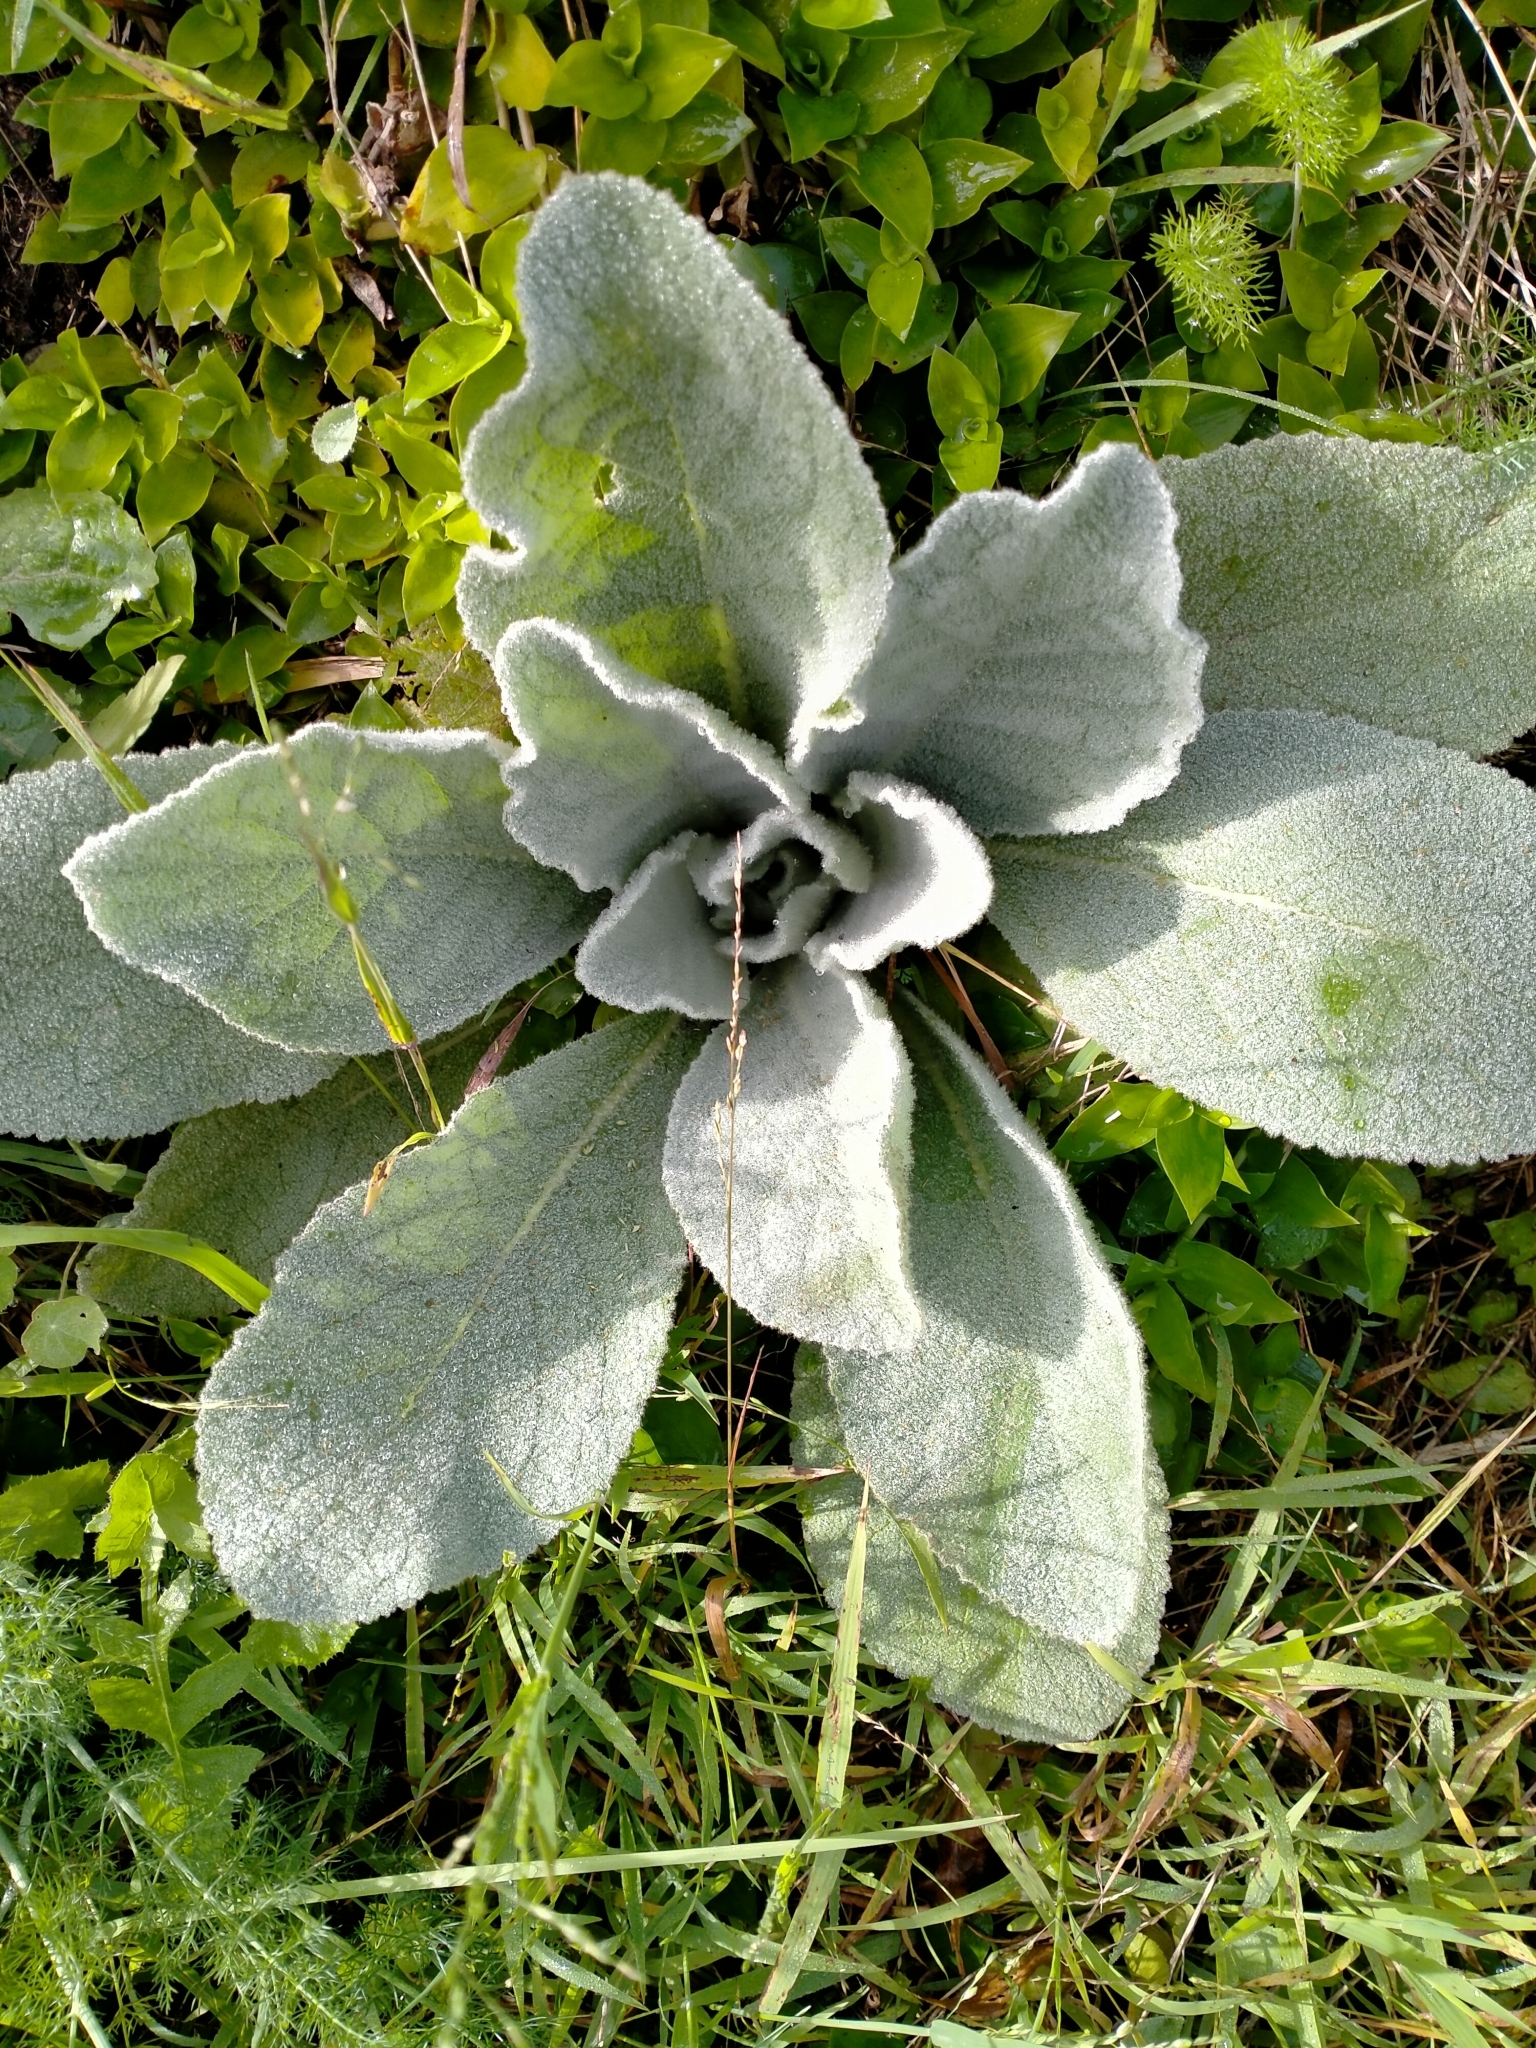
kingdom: Plantae
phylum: Tracheophyta
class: Magnoliopsida
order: Lamiales
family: Scrophulariaceae
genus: Verbascum
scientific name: Verbascum thapsus
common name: Common mullein
